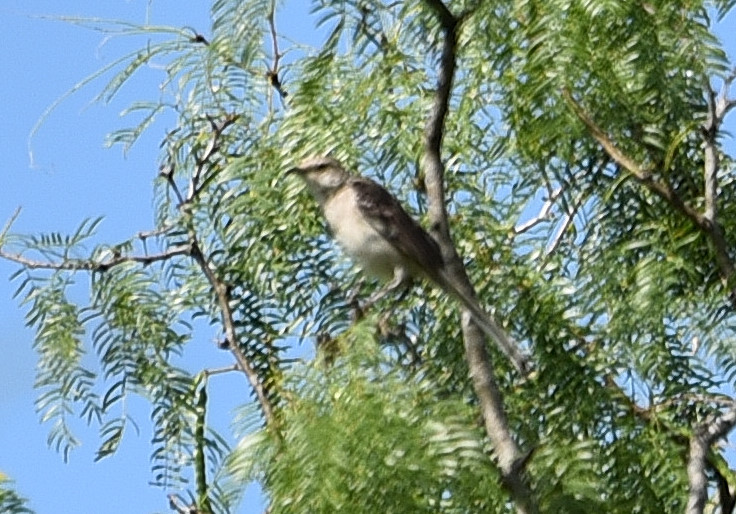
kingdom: Animalia
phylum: Chordata
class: Aves
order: Passeriformes
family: Mimidae
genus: Mimus
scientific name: Mimus polyglottos
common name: Northern mockingbird
